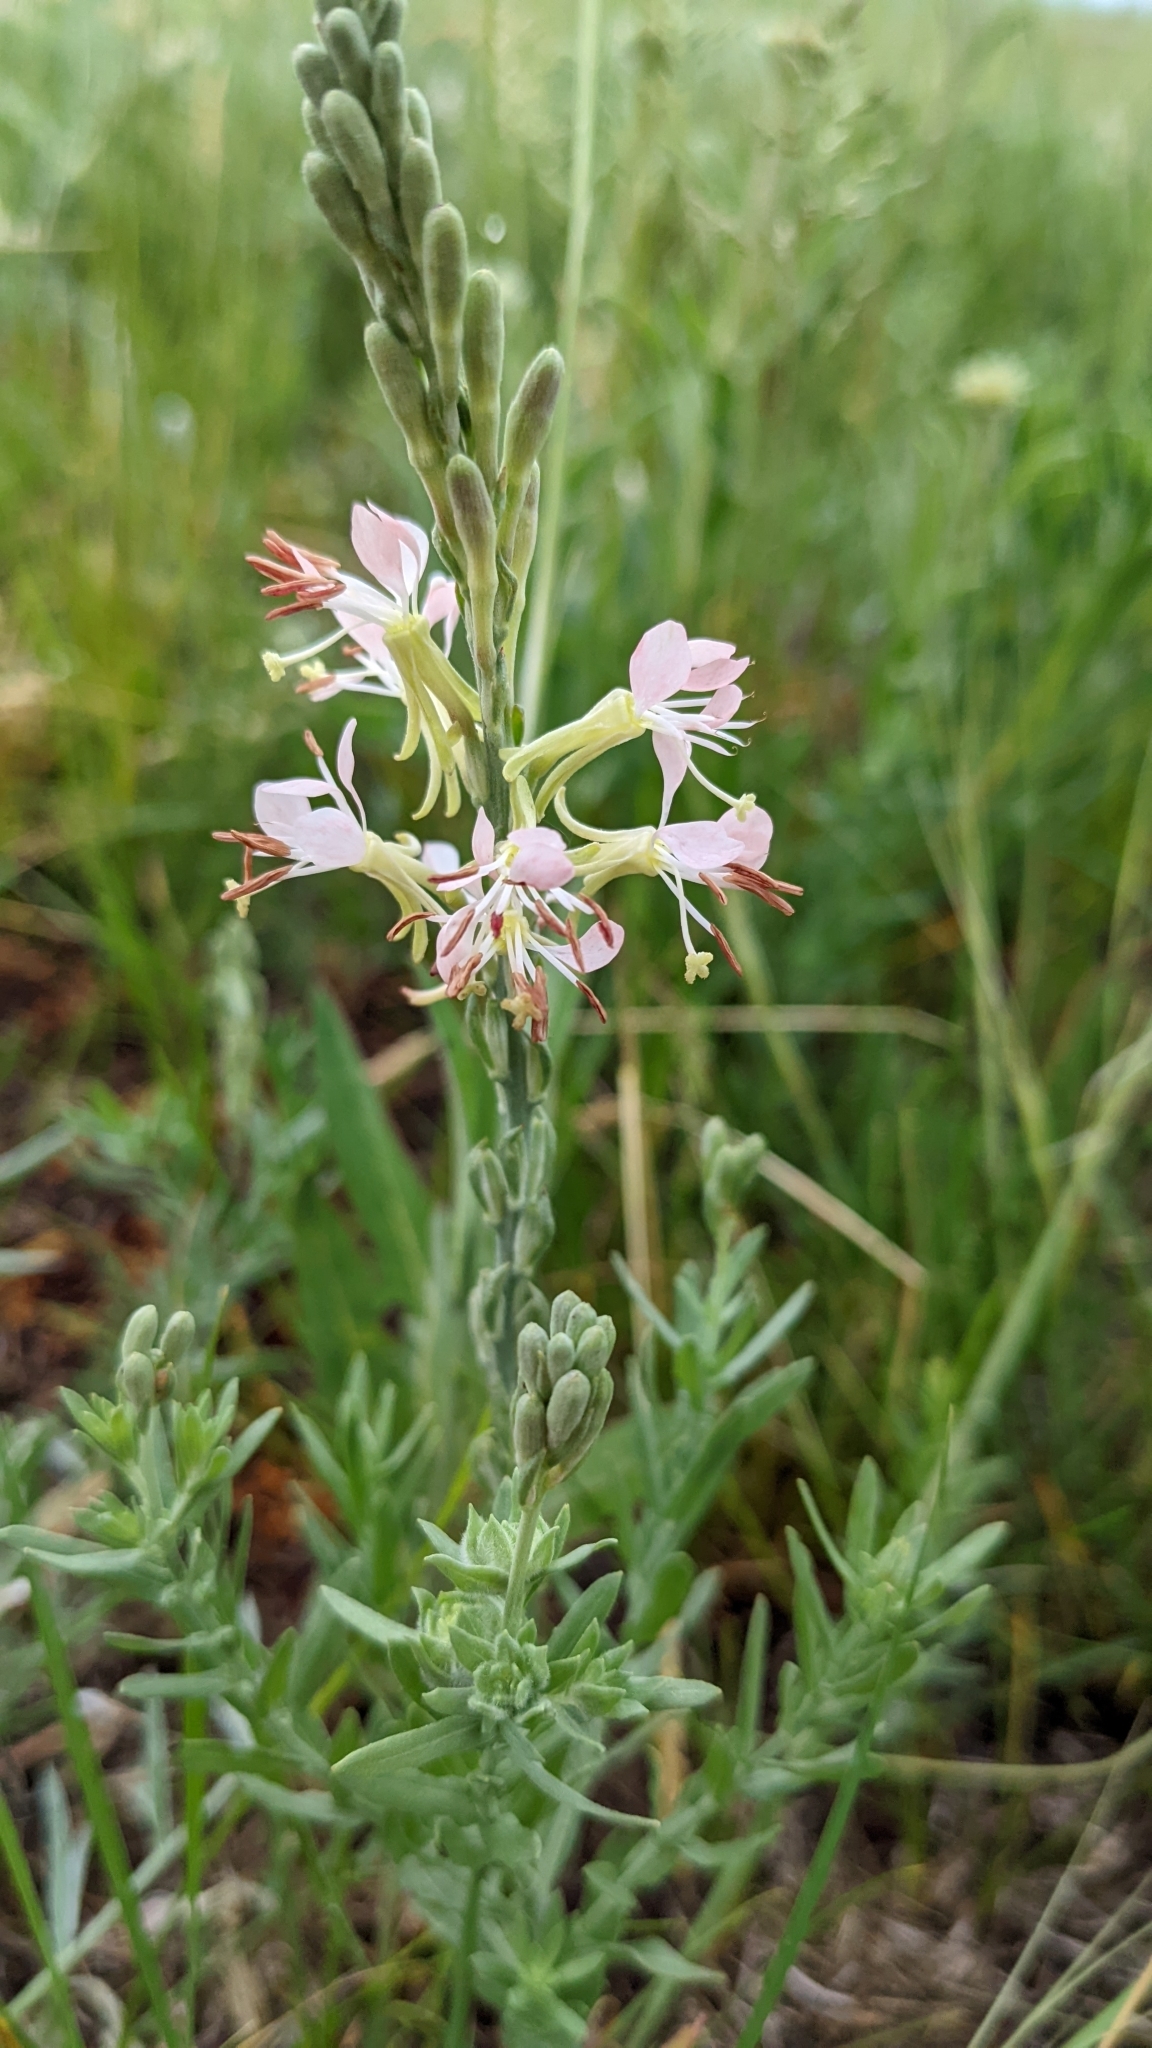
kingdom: Plantae
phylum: Tracheophyta
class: Magnoliopsida
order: Myrtales
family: Onagraceae
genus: Oenothera
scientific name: Oenothera suffrutescens
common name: Scarlet beeblossom
